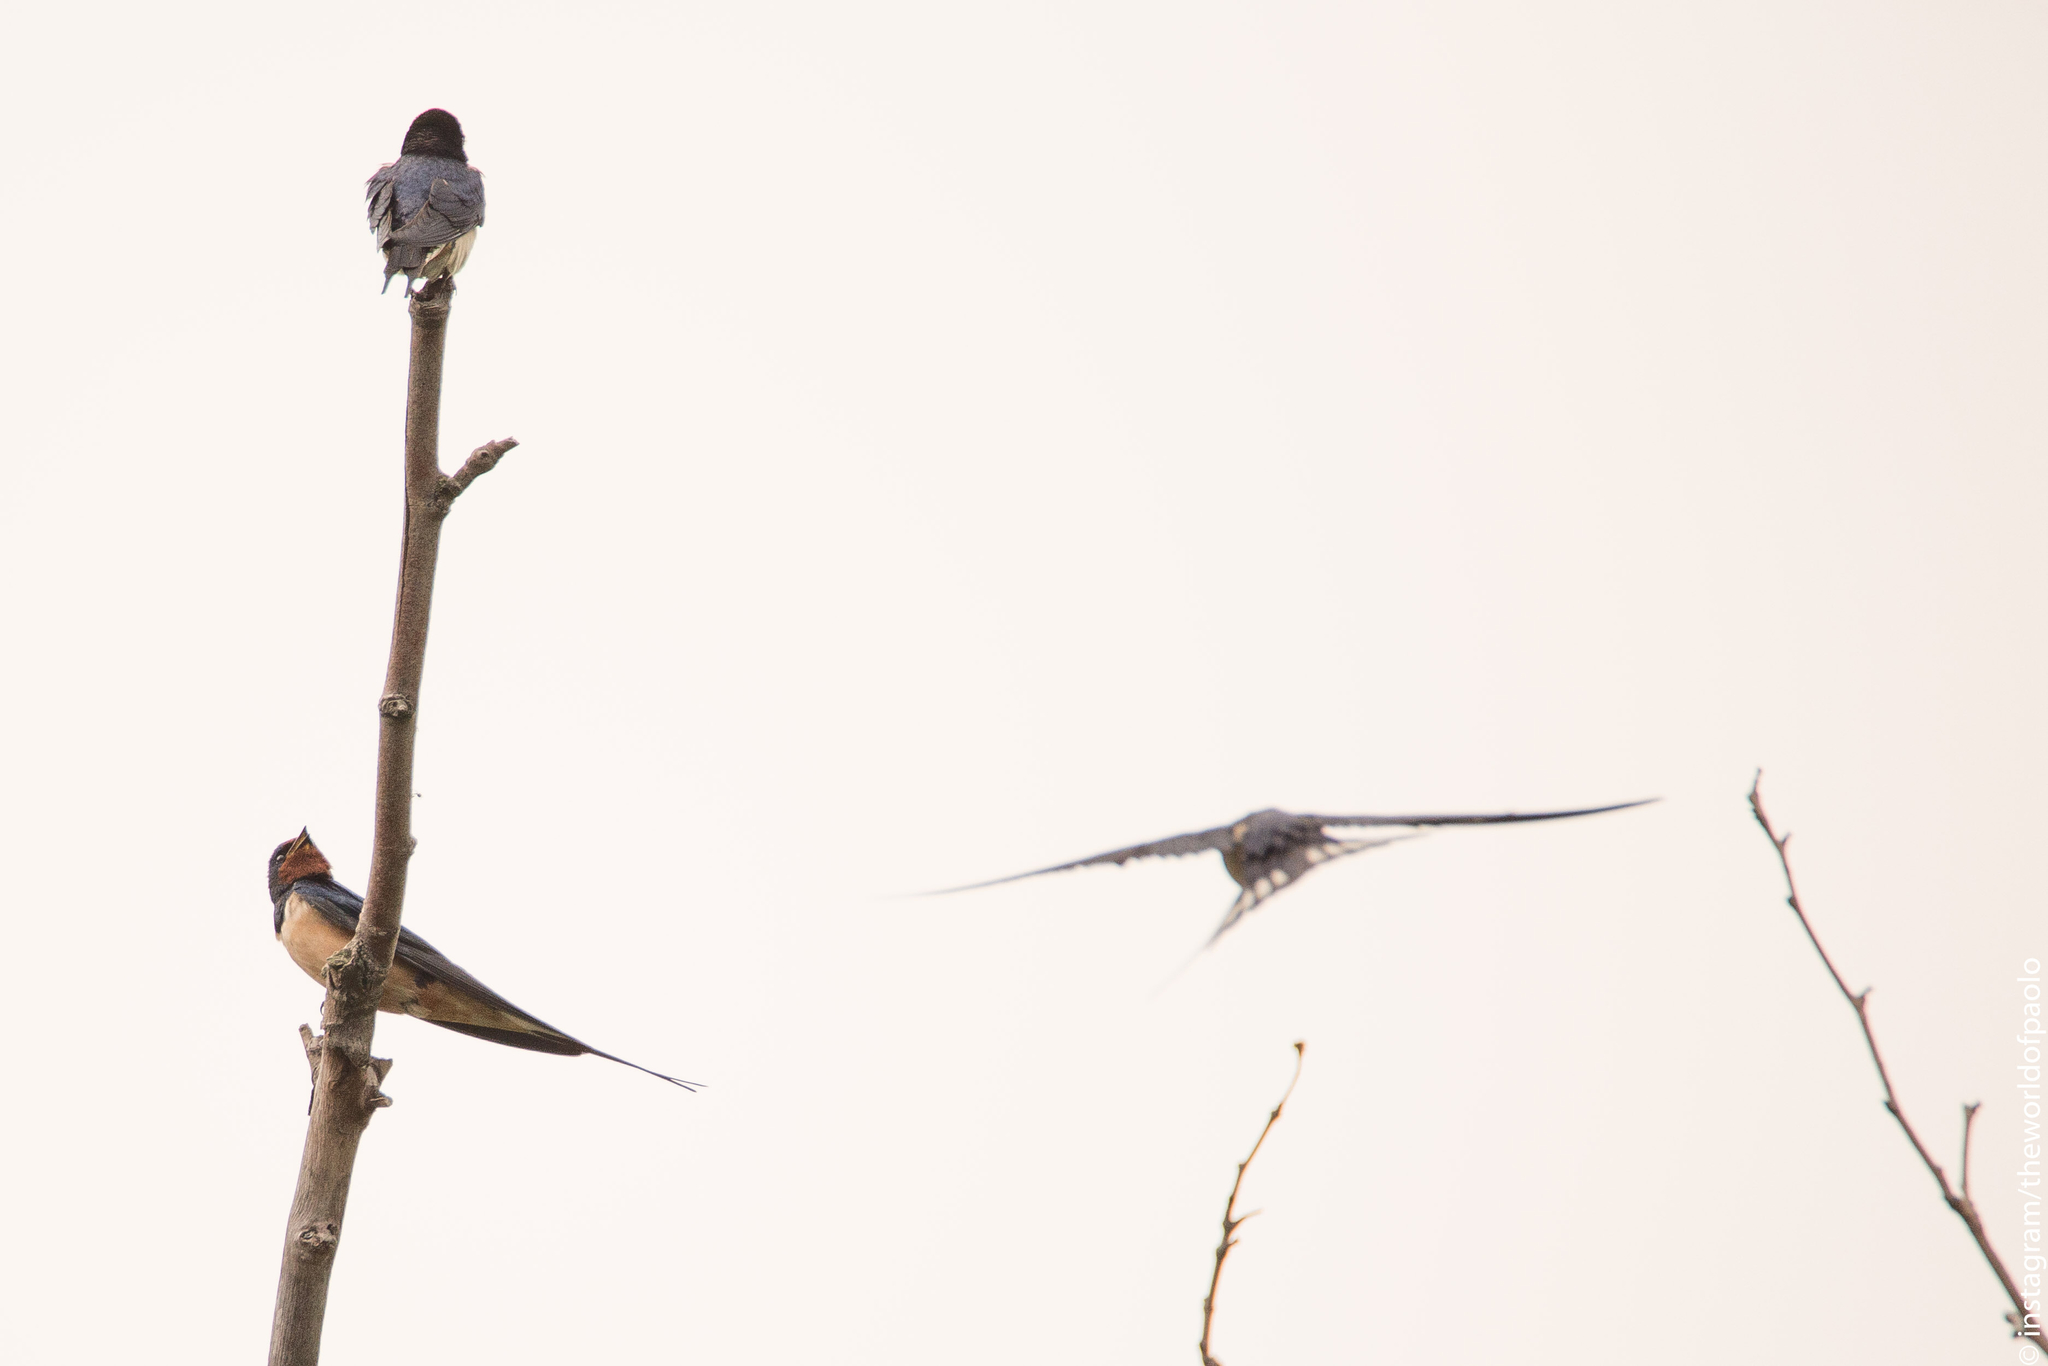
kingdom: Animalia
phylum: Chordata
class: Aves
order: Passeriformes
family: Hirundinidae
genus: Hirundo
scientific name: Hirundo rustica
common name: Barn swallow
